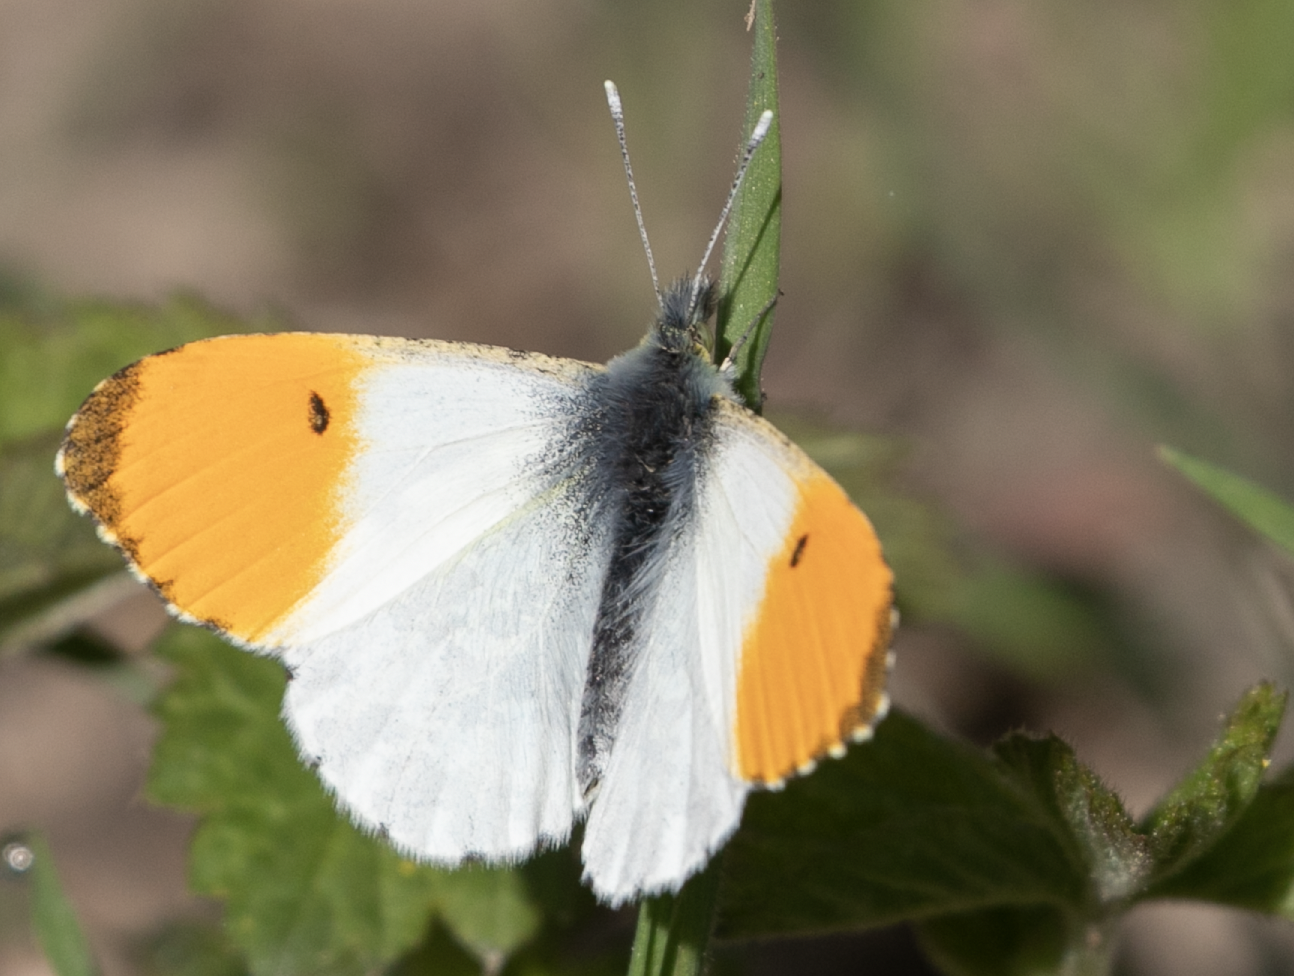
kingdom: Animalia
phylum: Arthropoda
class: Insecta
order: Lepidoptera
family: Pieridae
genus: Anthocharis
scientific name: Anthocharis cardamines
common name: Orange-tip
